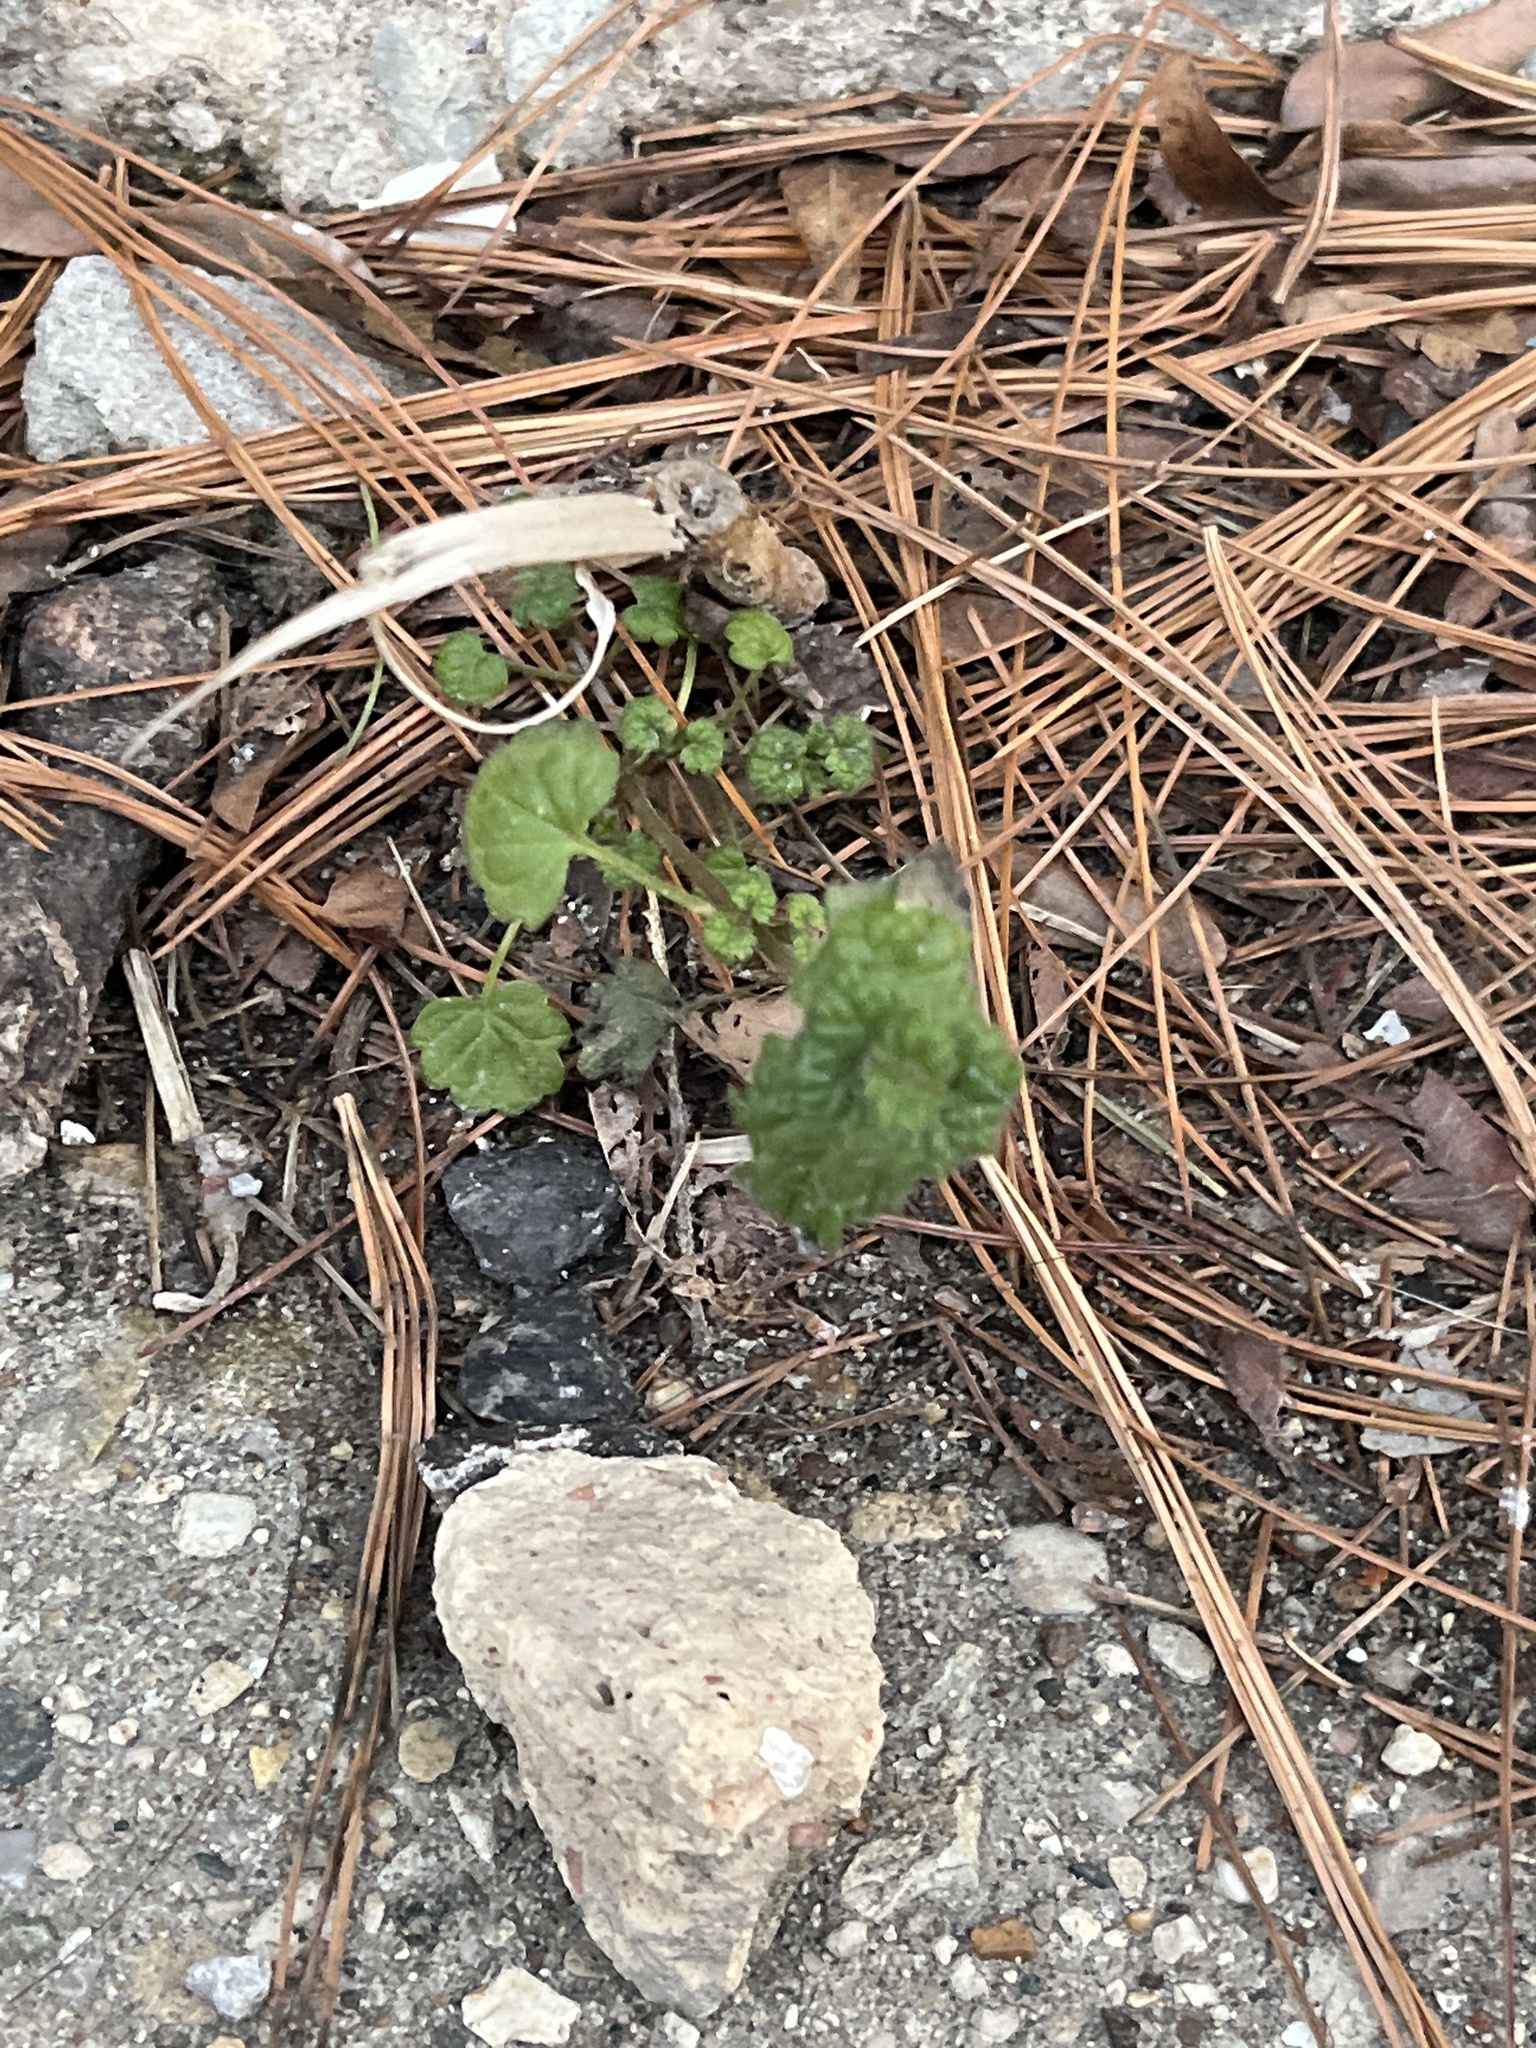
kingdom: Plantae
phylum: Tracheophyta
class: Magnoliopsida
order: Lamiales
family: Lamiaceae
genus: Lamium
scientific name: Lamium amplexicaule
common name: Henbit dead-nettle
